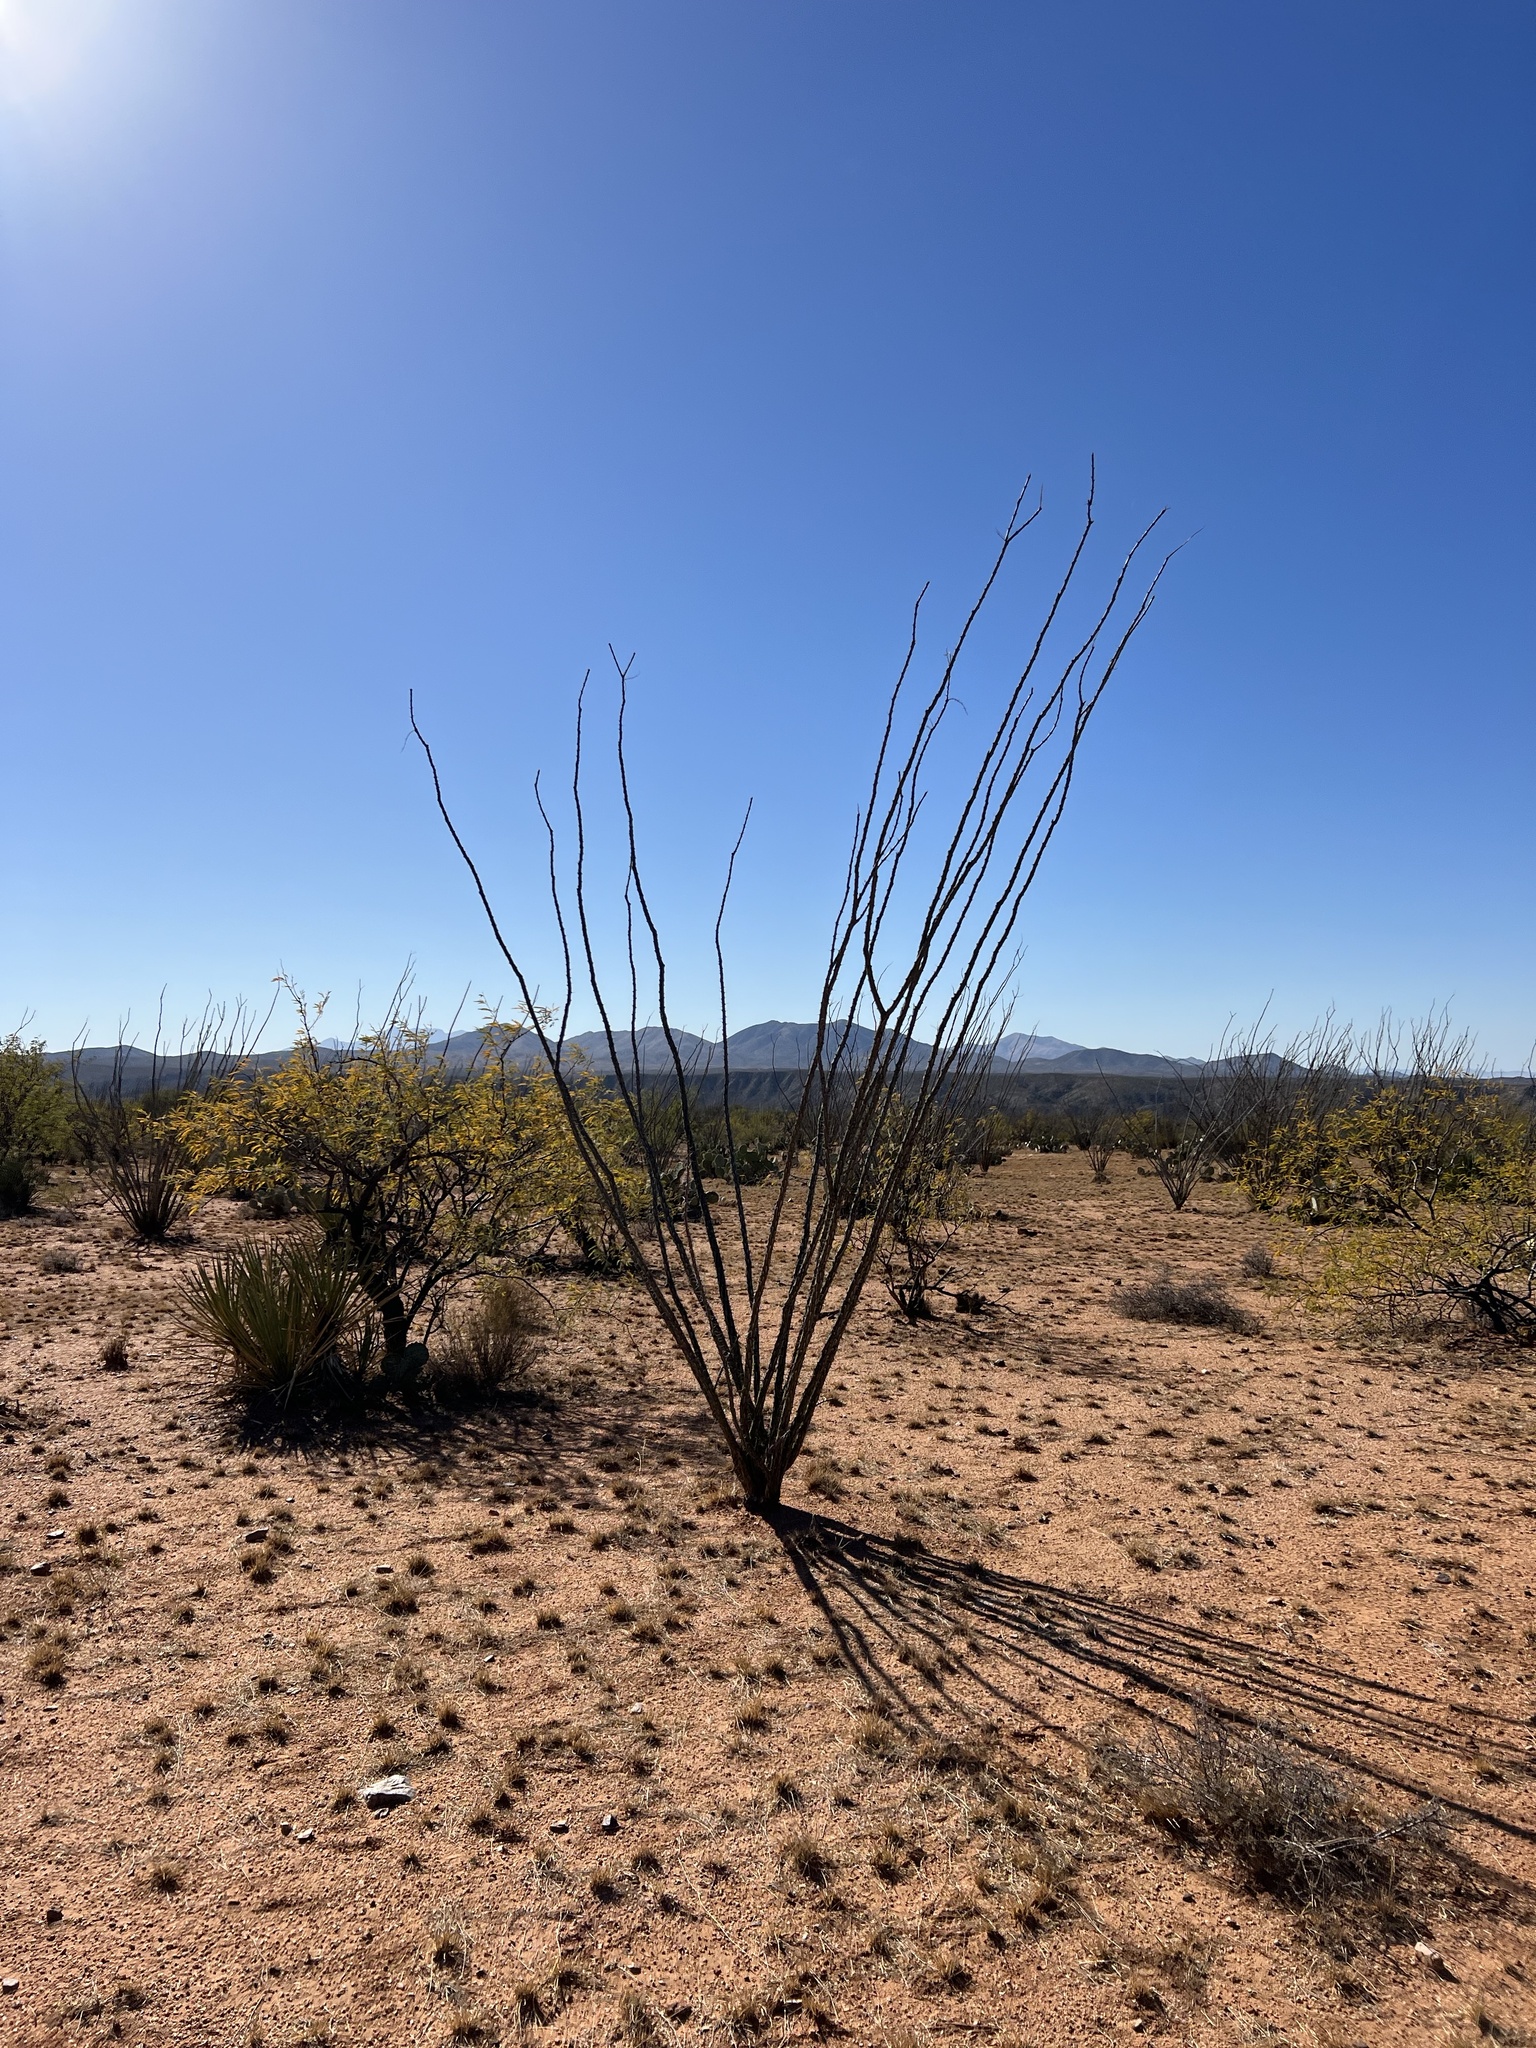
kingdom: Plantae
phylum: Tracheophyta
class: Magnoliopsida
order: Ericales
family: Fouquieriaceae
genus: Fouquieria
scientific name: Fouquieria splendens
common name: Vine-cactus
